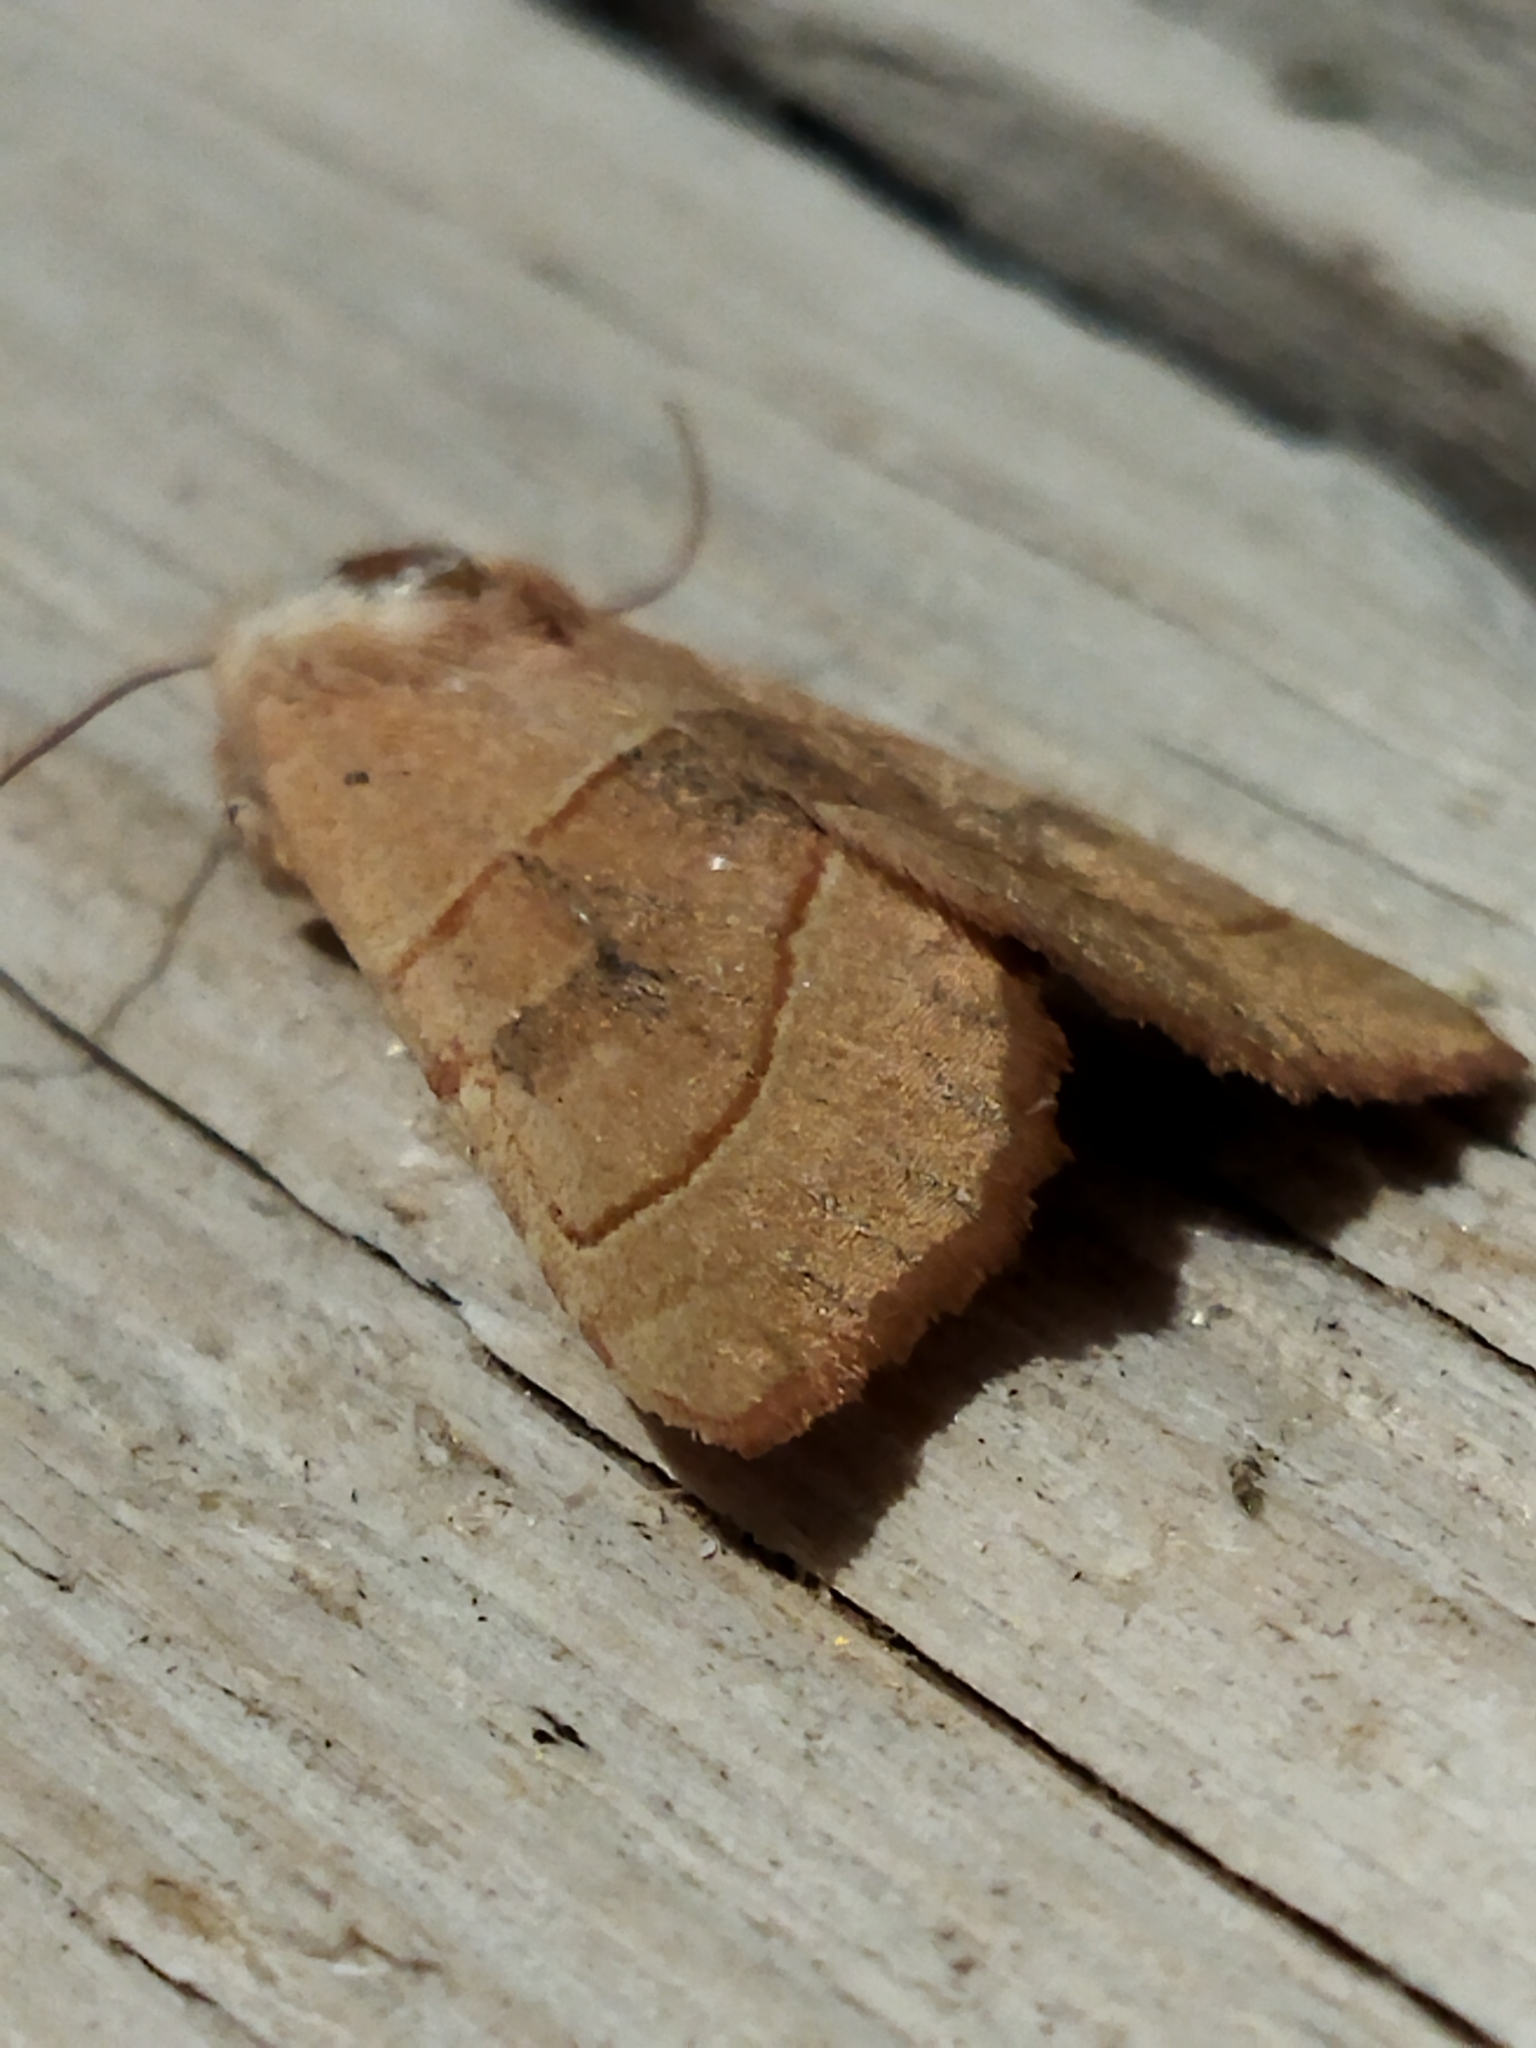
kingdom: Animalia
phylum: Arthropoda
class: Insecta
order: Lepidoptera
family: Noctuidae
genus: Atethmia
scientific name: Atethmia centrago
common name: Centre-barred sallow
